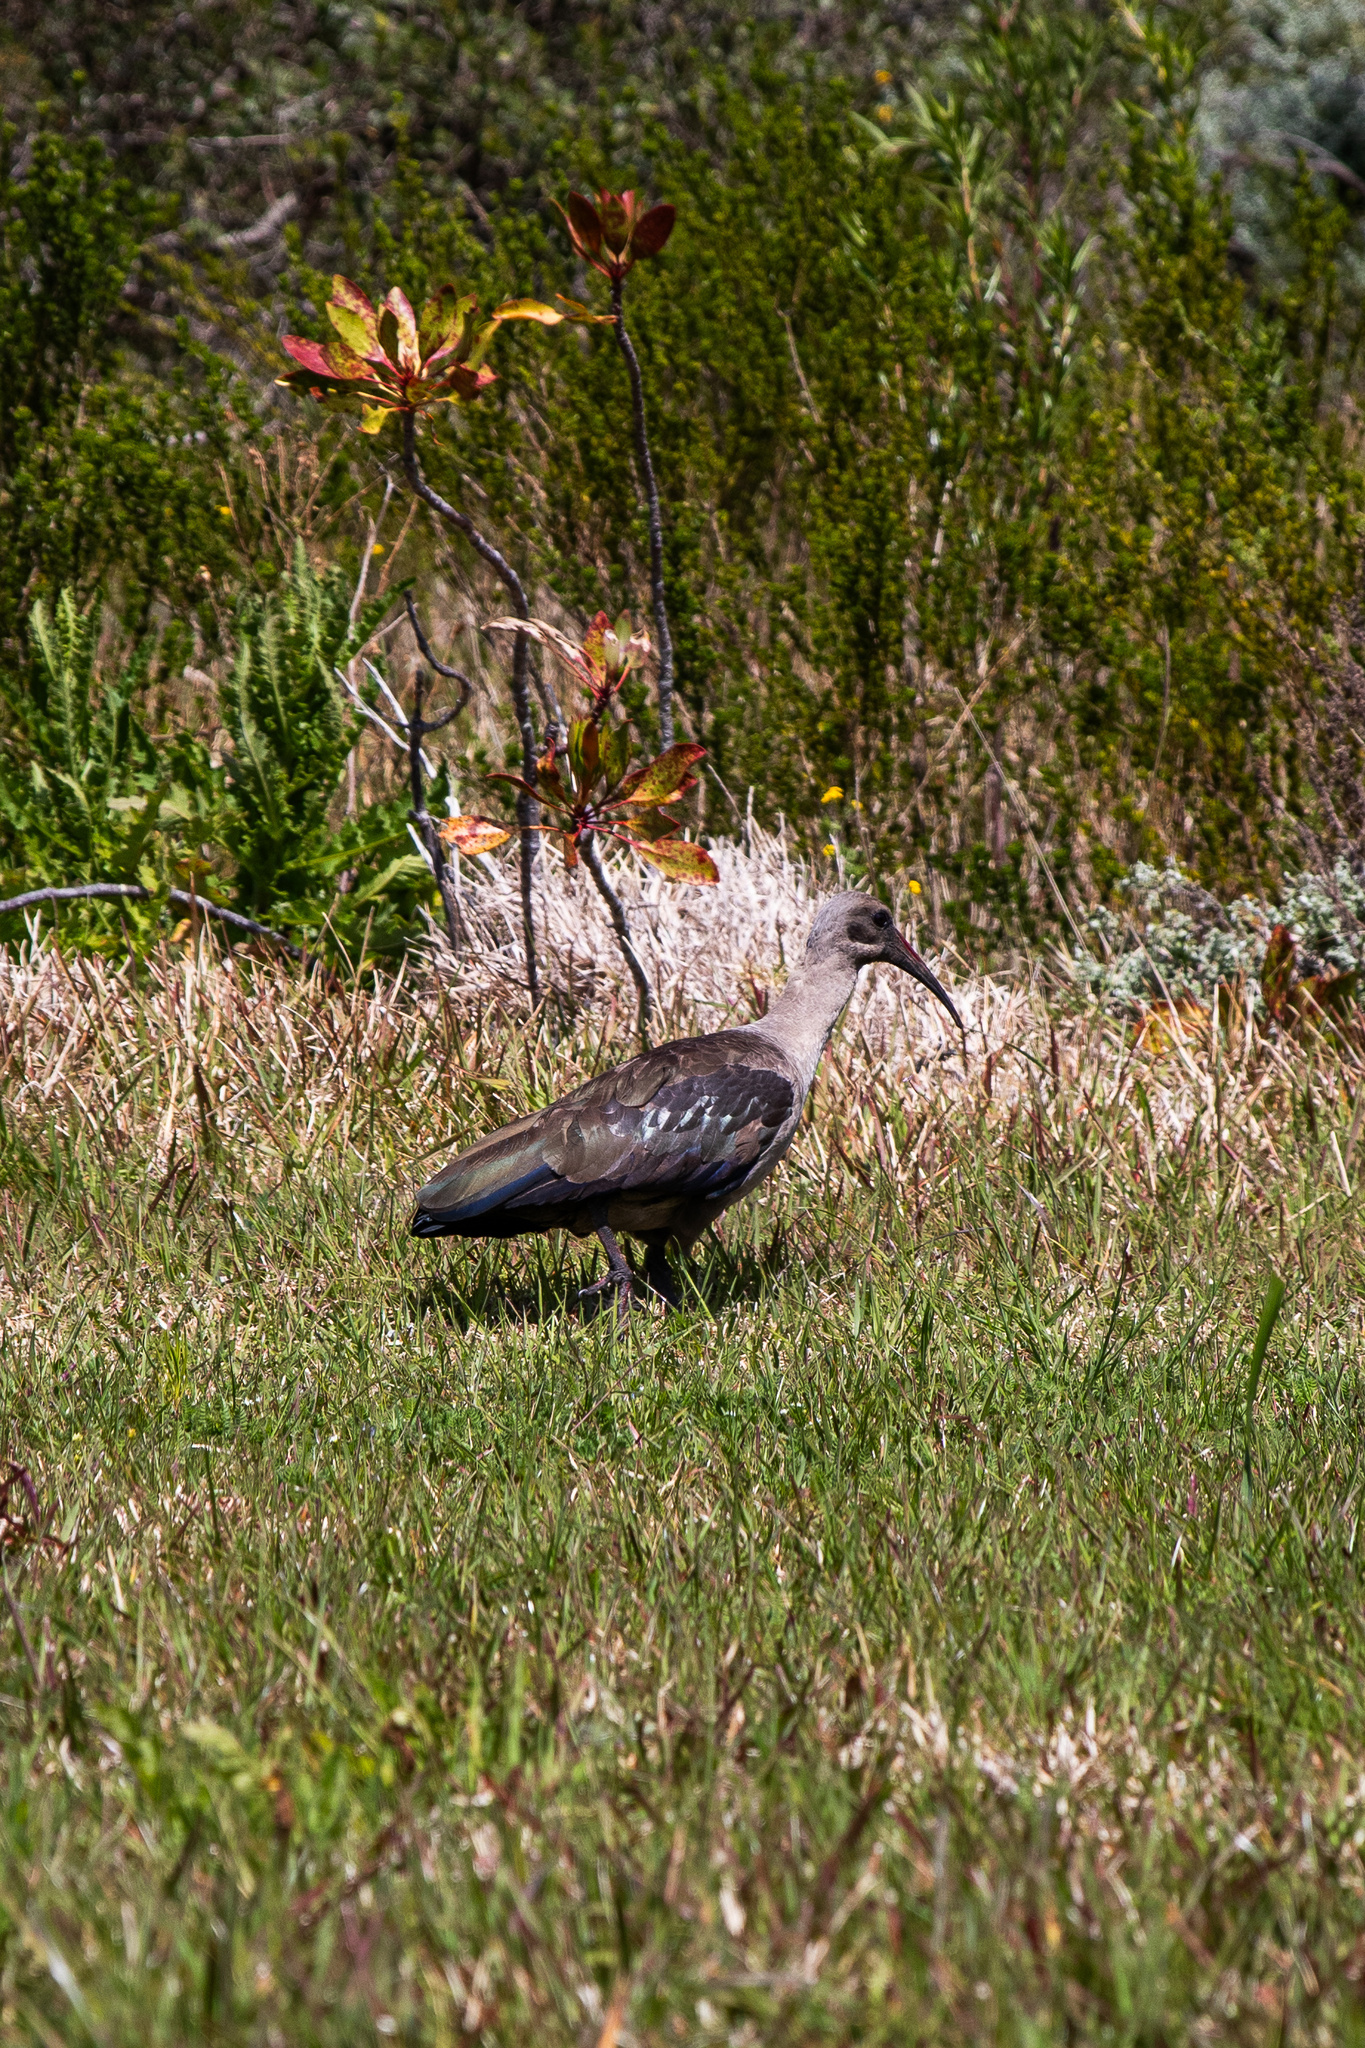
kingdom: Animalia
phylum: Chordata
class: Aves
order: Pelecaniformes
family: Threskiornithidae
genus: Bostrychia
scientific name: Bostrychia hagedash
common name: Hadada ibis
